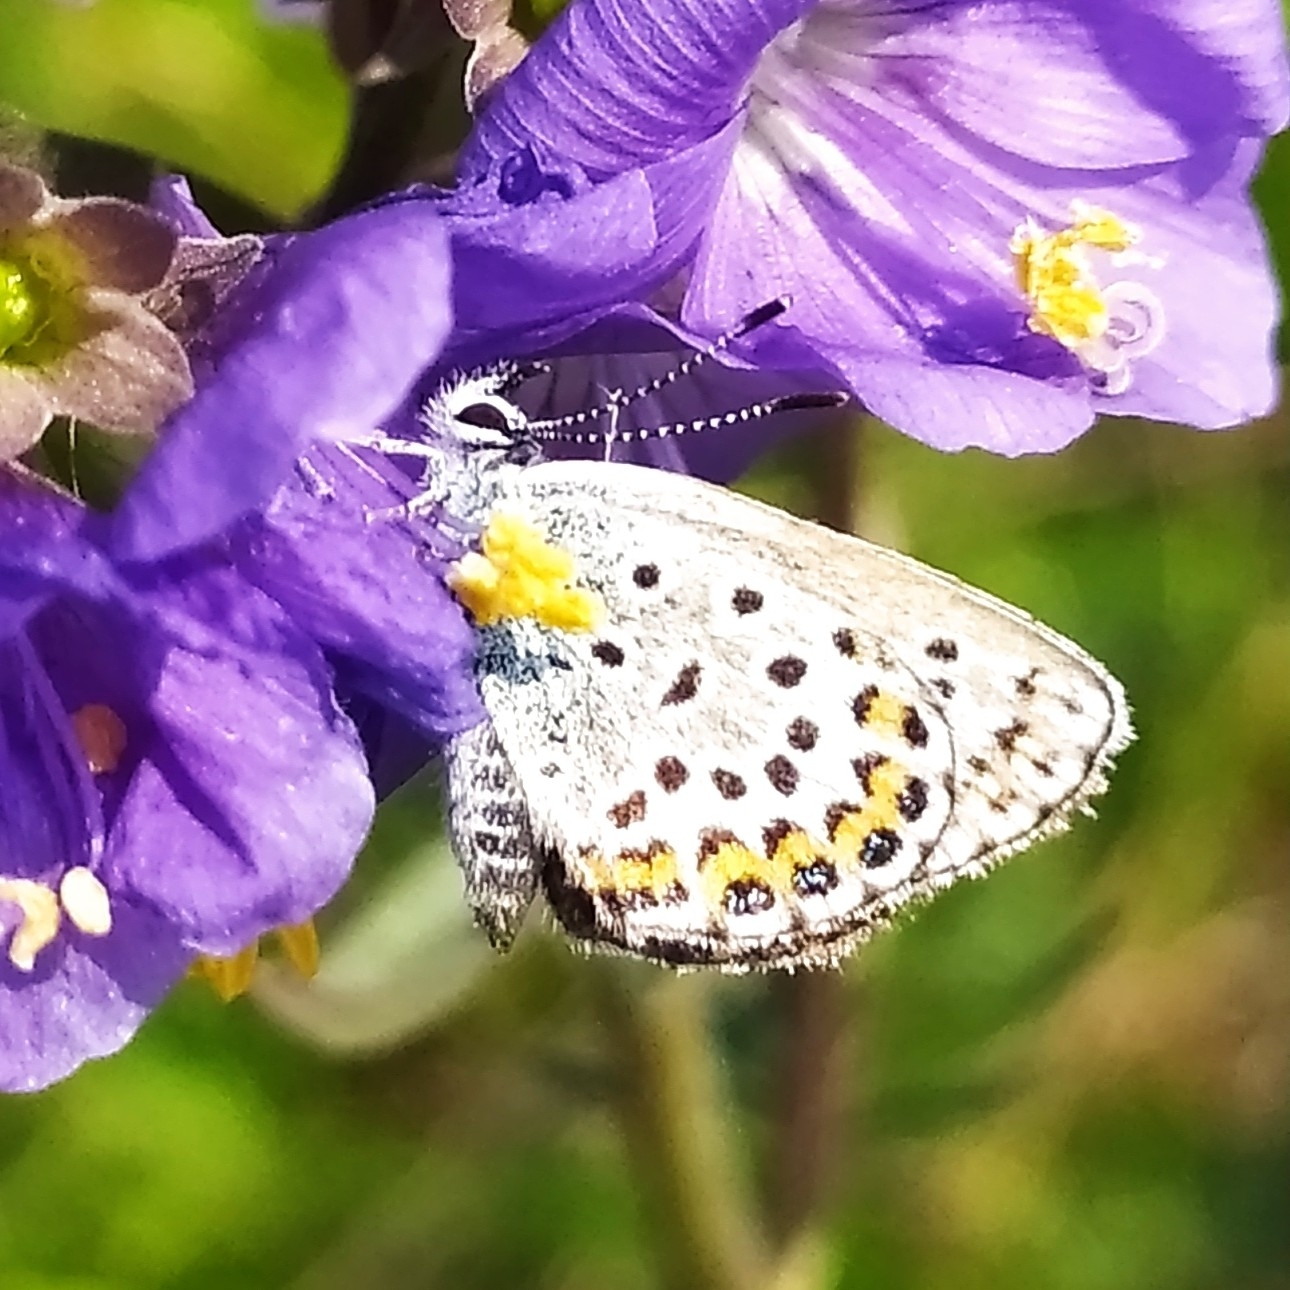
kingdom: Animalia
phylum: Arthropoda
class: Insecta
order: Lepidoptera
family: Lycaenidae
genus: Plebejus
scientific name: Plebejus argus
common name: Silver-studded blue
